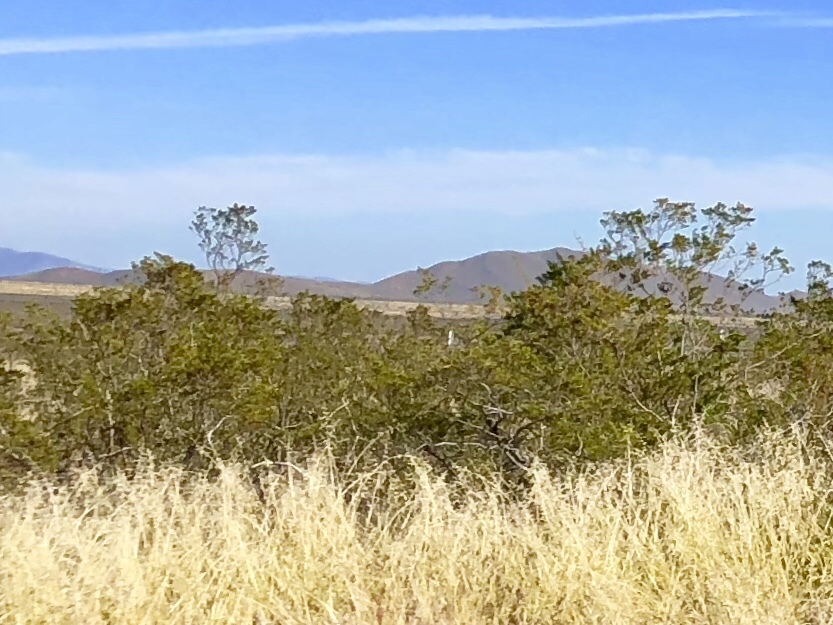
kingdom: Plantae
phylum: Tracheophyta
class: Magnoliopsida
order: Zygophyllales
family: Zygophyllaceae
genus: Larrea
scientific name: Larrea tridentata
